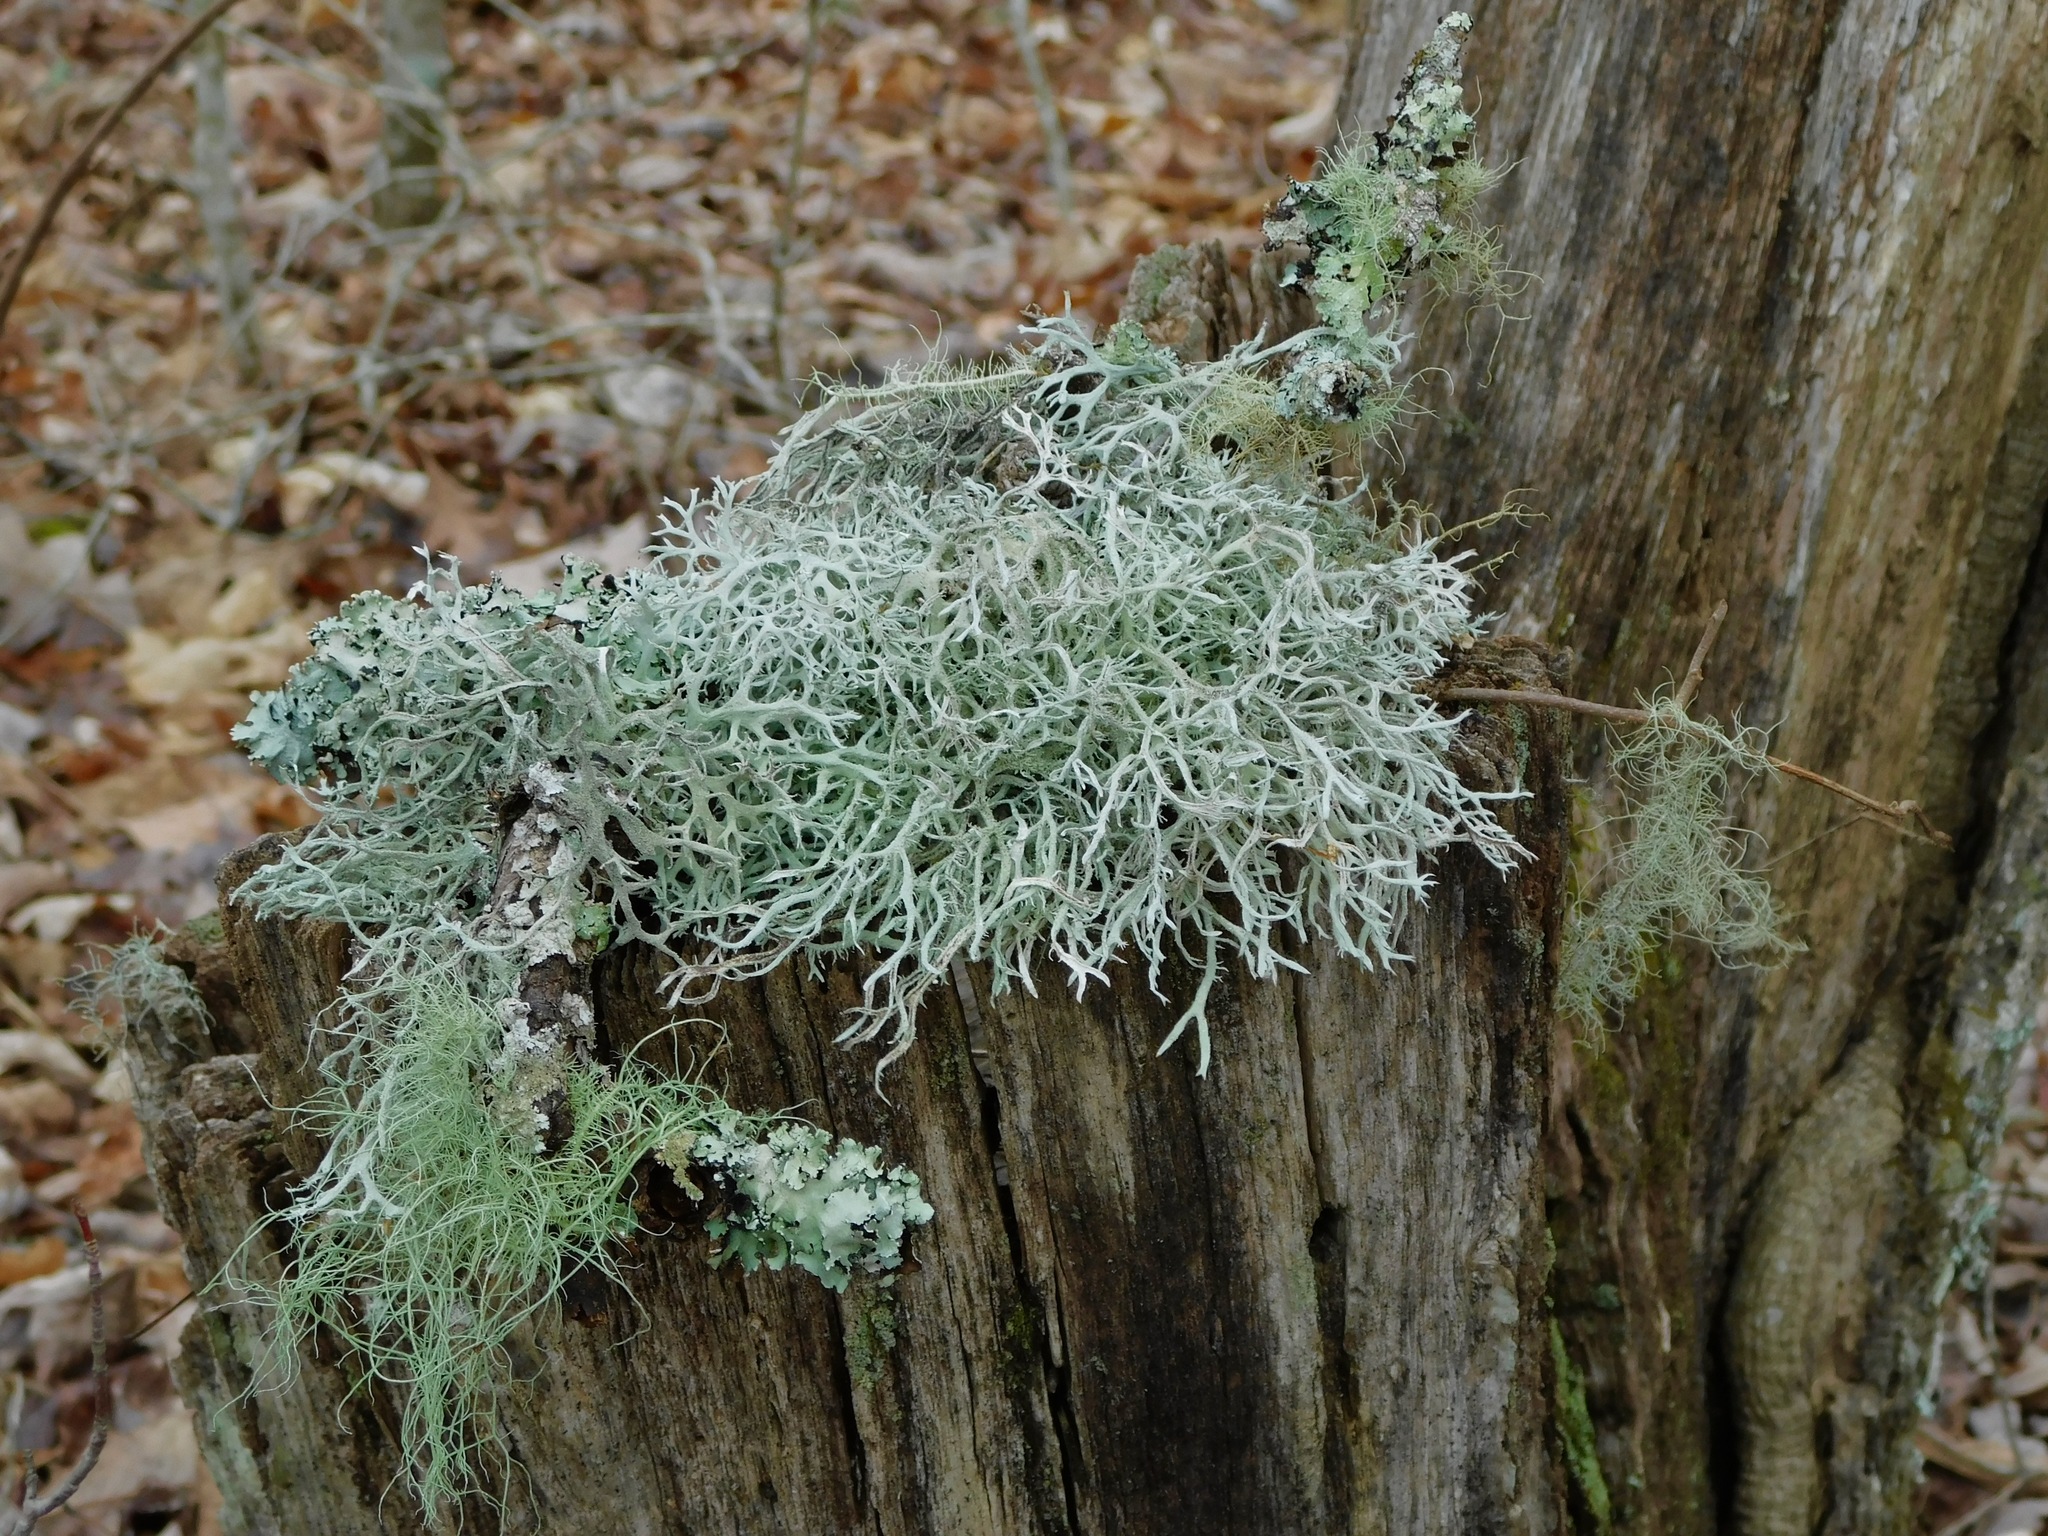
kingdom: Fungi
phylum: Ascomycota
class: Lecanoromycetes
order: Lecanorales
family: Parmeliaceae
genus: Pseudevernia
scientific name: Pseudevernia consocians
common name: Common antler lichen
